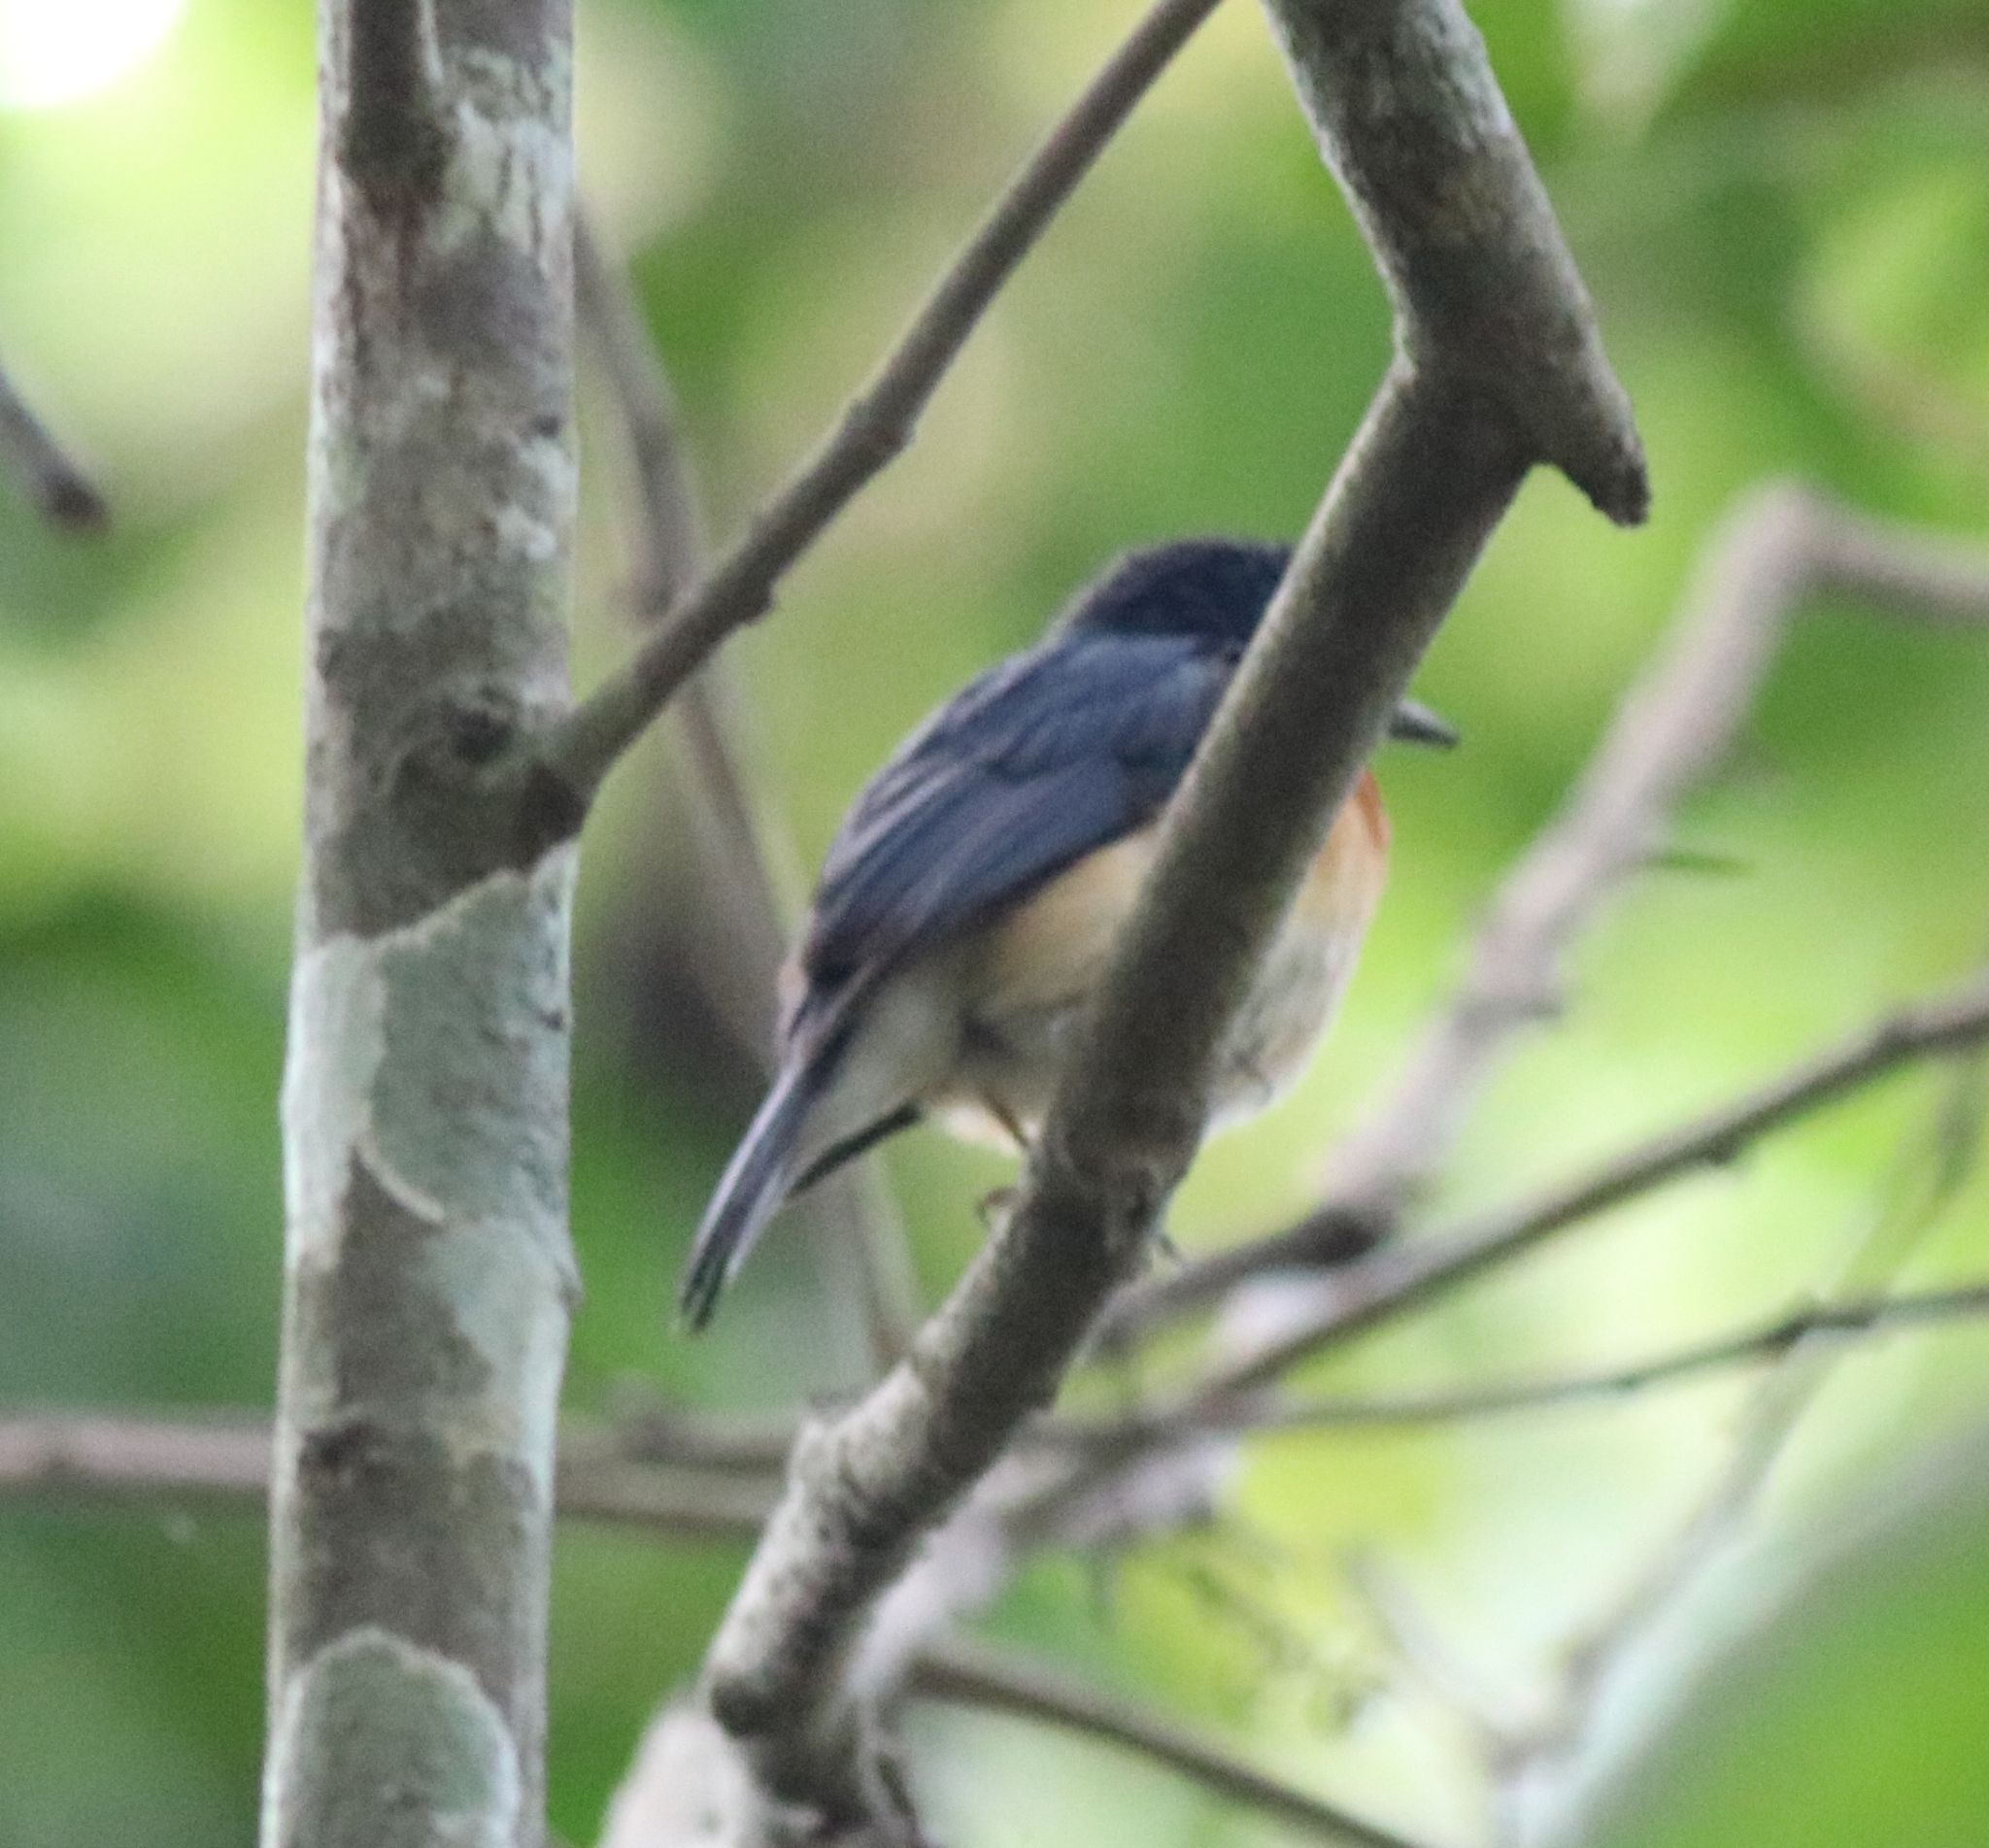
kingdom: Animalia
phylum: Chordata
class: Aves
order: Passeriformes
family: Muscicapidae
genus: Cyornis
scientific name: Cyornis tickelliae
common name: Tickell's blue flycatcher
